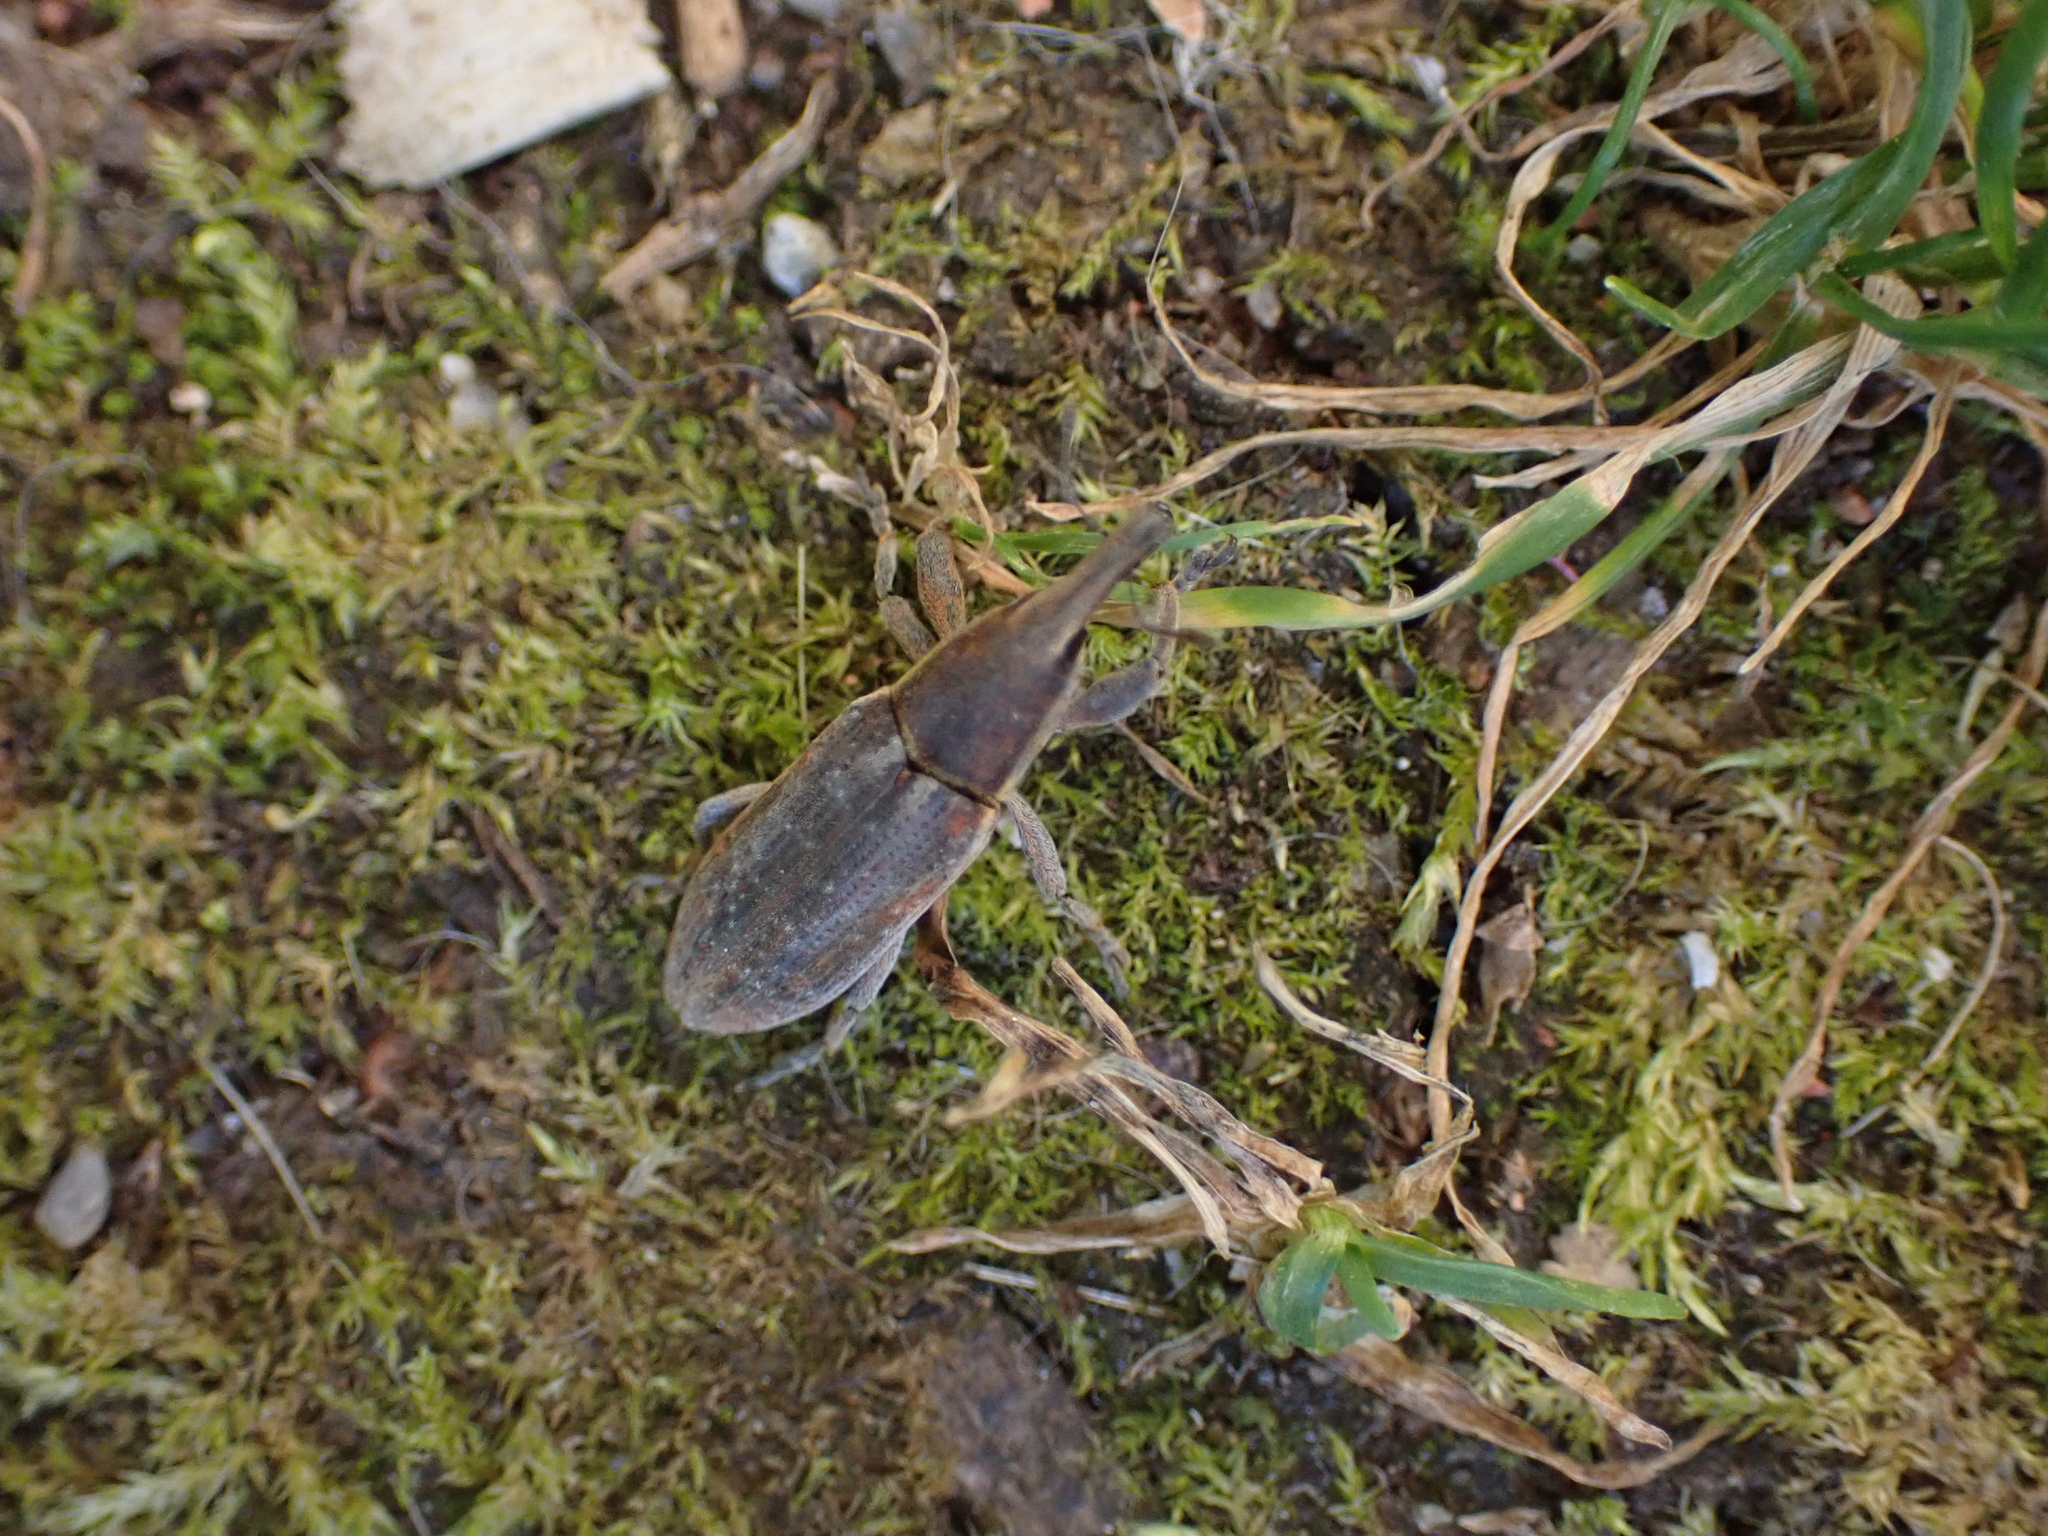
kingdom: Animalia
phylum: Arthropoda
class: Insecta
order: Coleoptera
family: Curculionidae
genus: Lixus
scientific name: Lixus vilis
